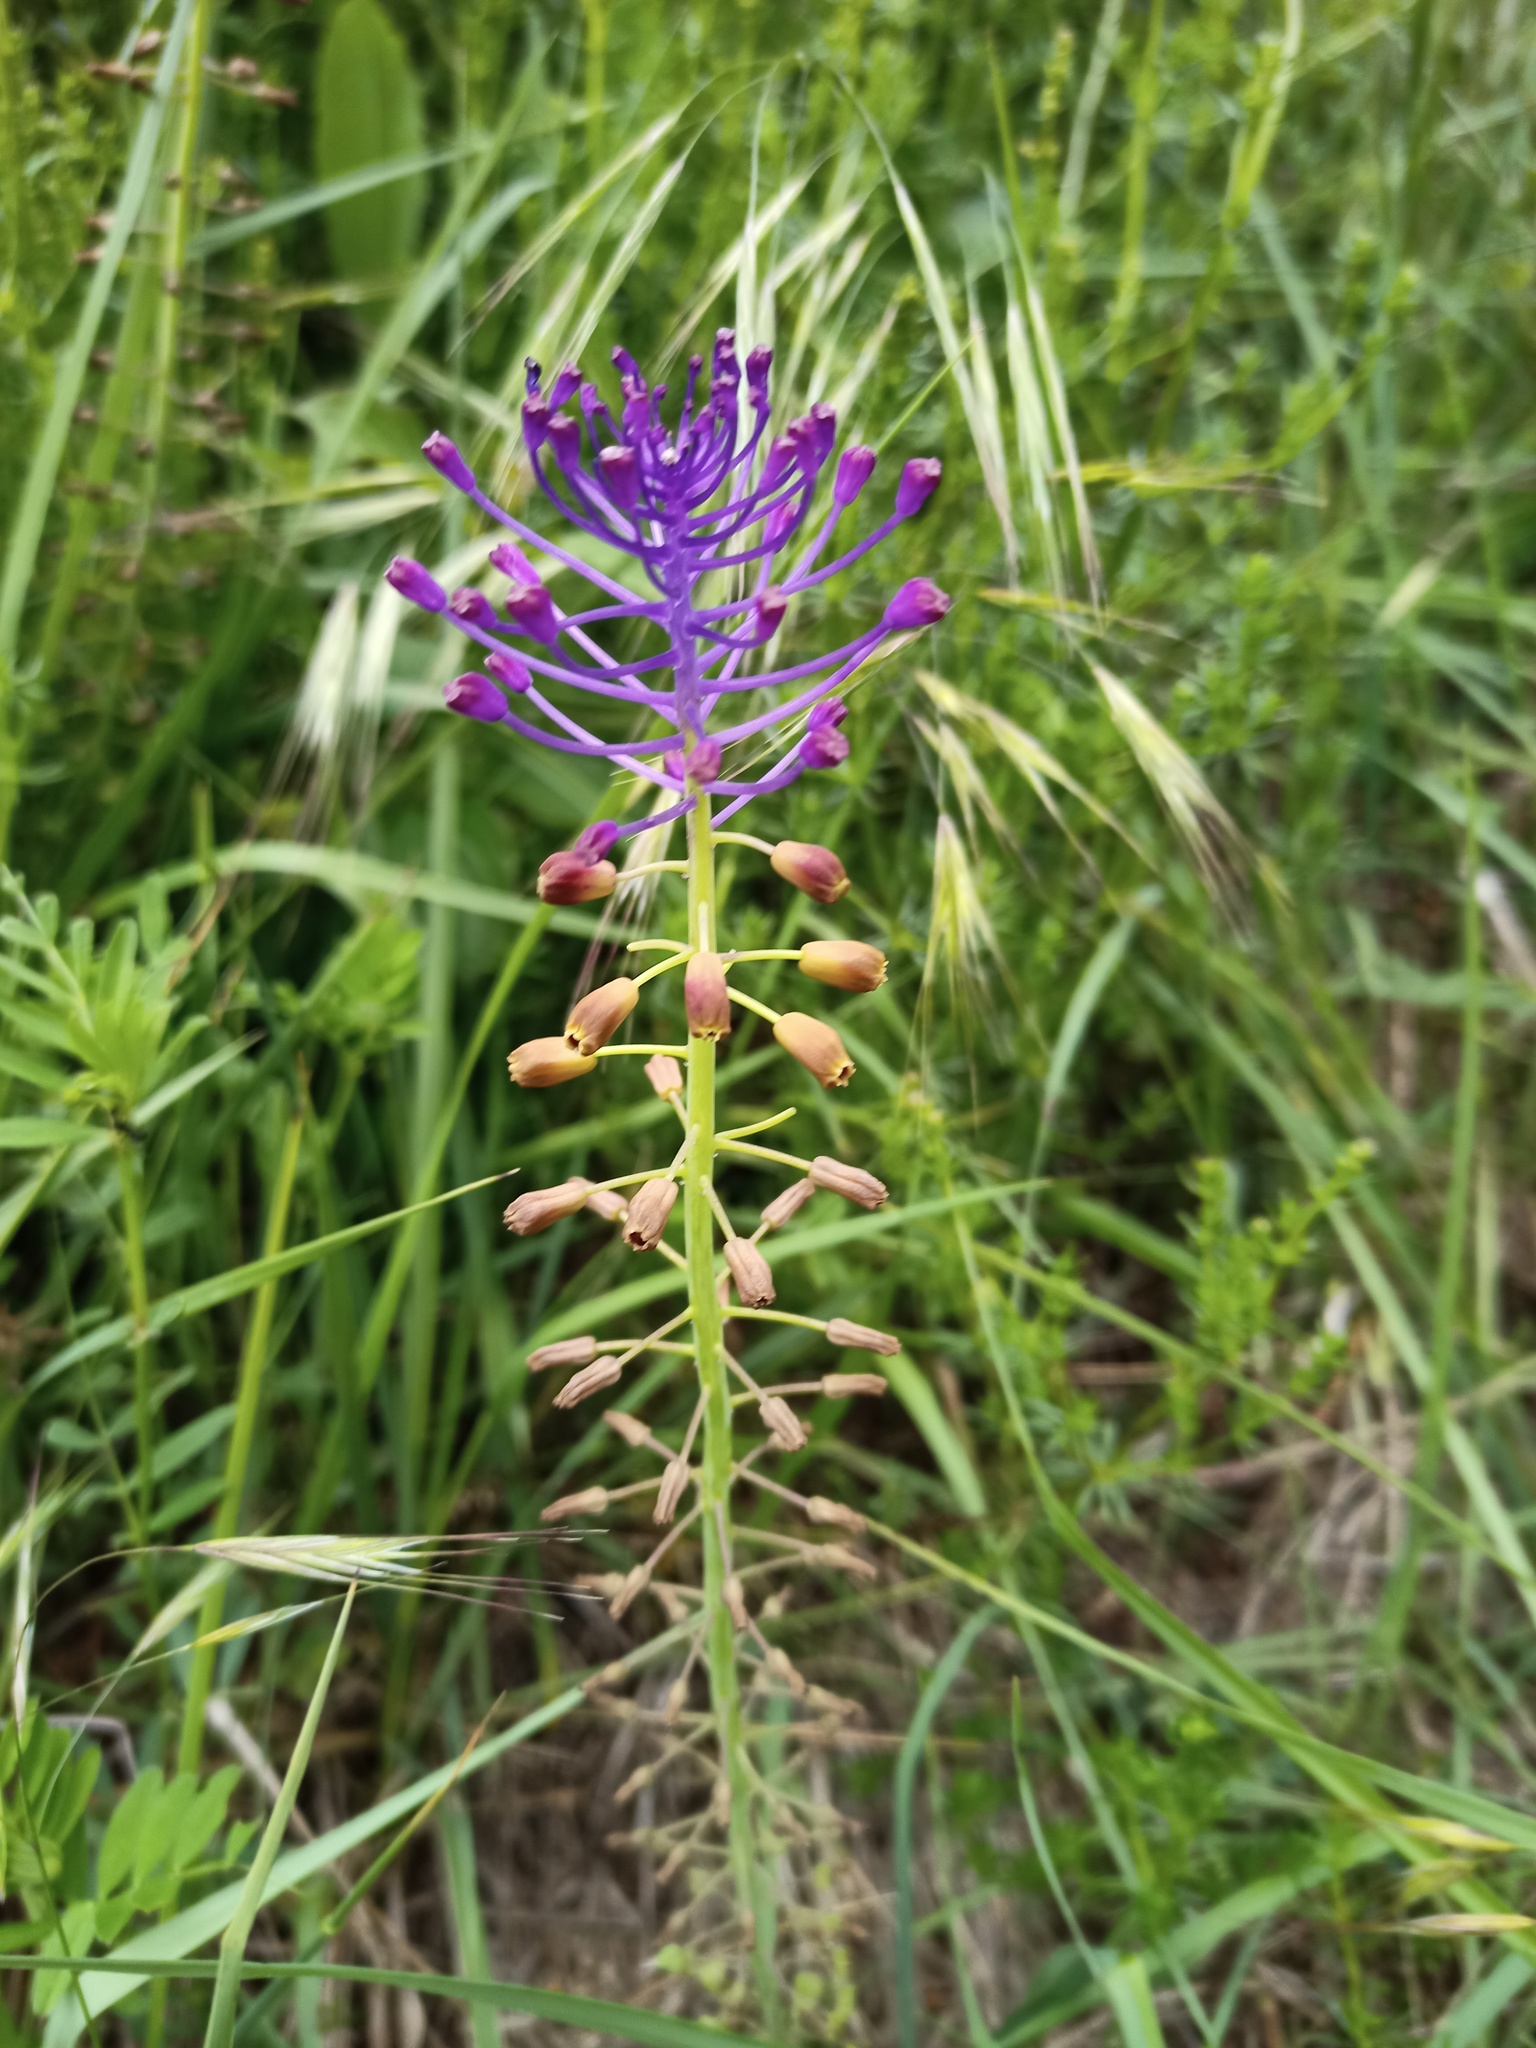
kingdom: Plantae
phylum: Tracheophyta
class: Liliopsida
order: Asparagales
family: Asparagaceae
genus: Muscari
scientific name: Muscari comosum
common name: Tassel hyacinth
